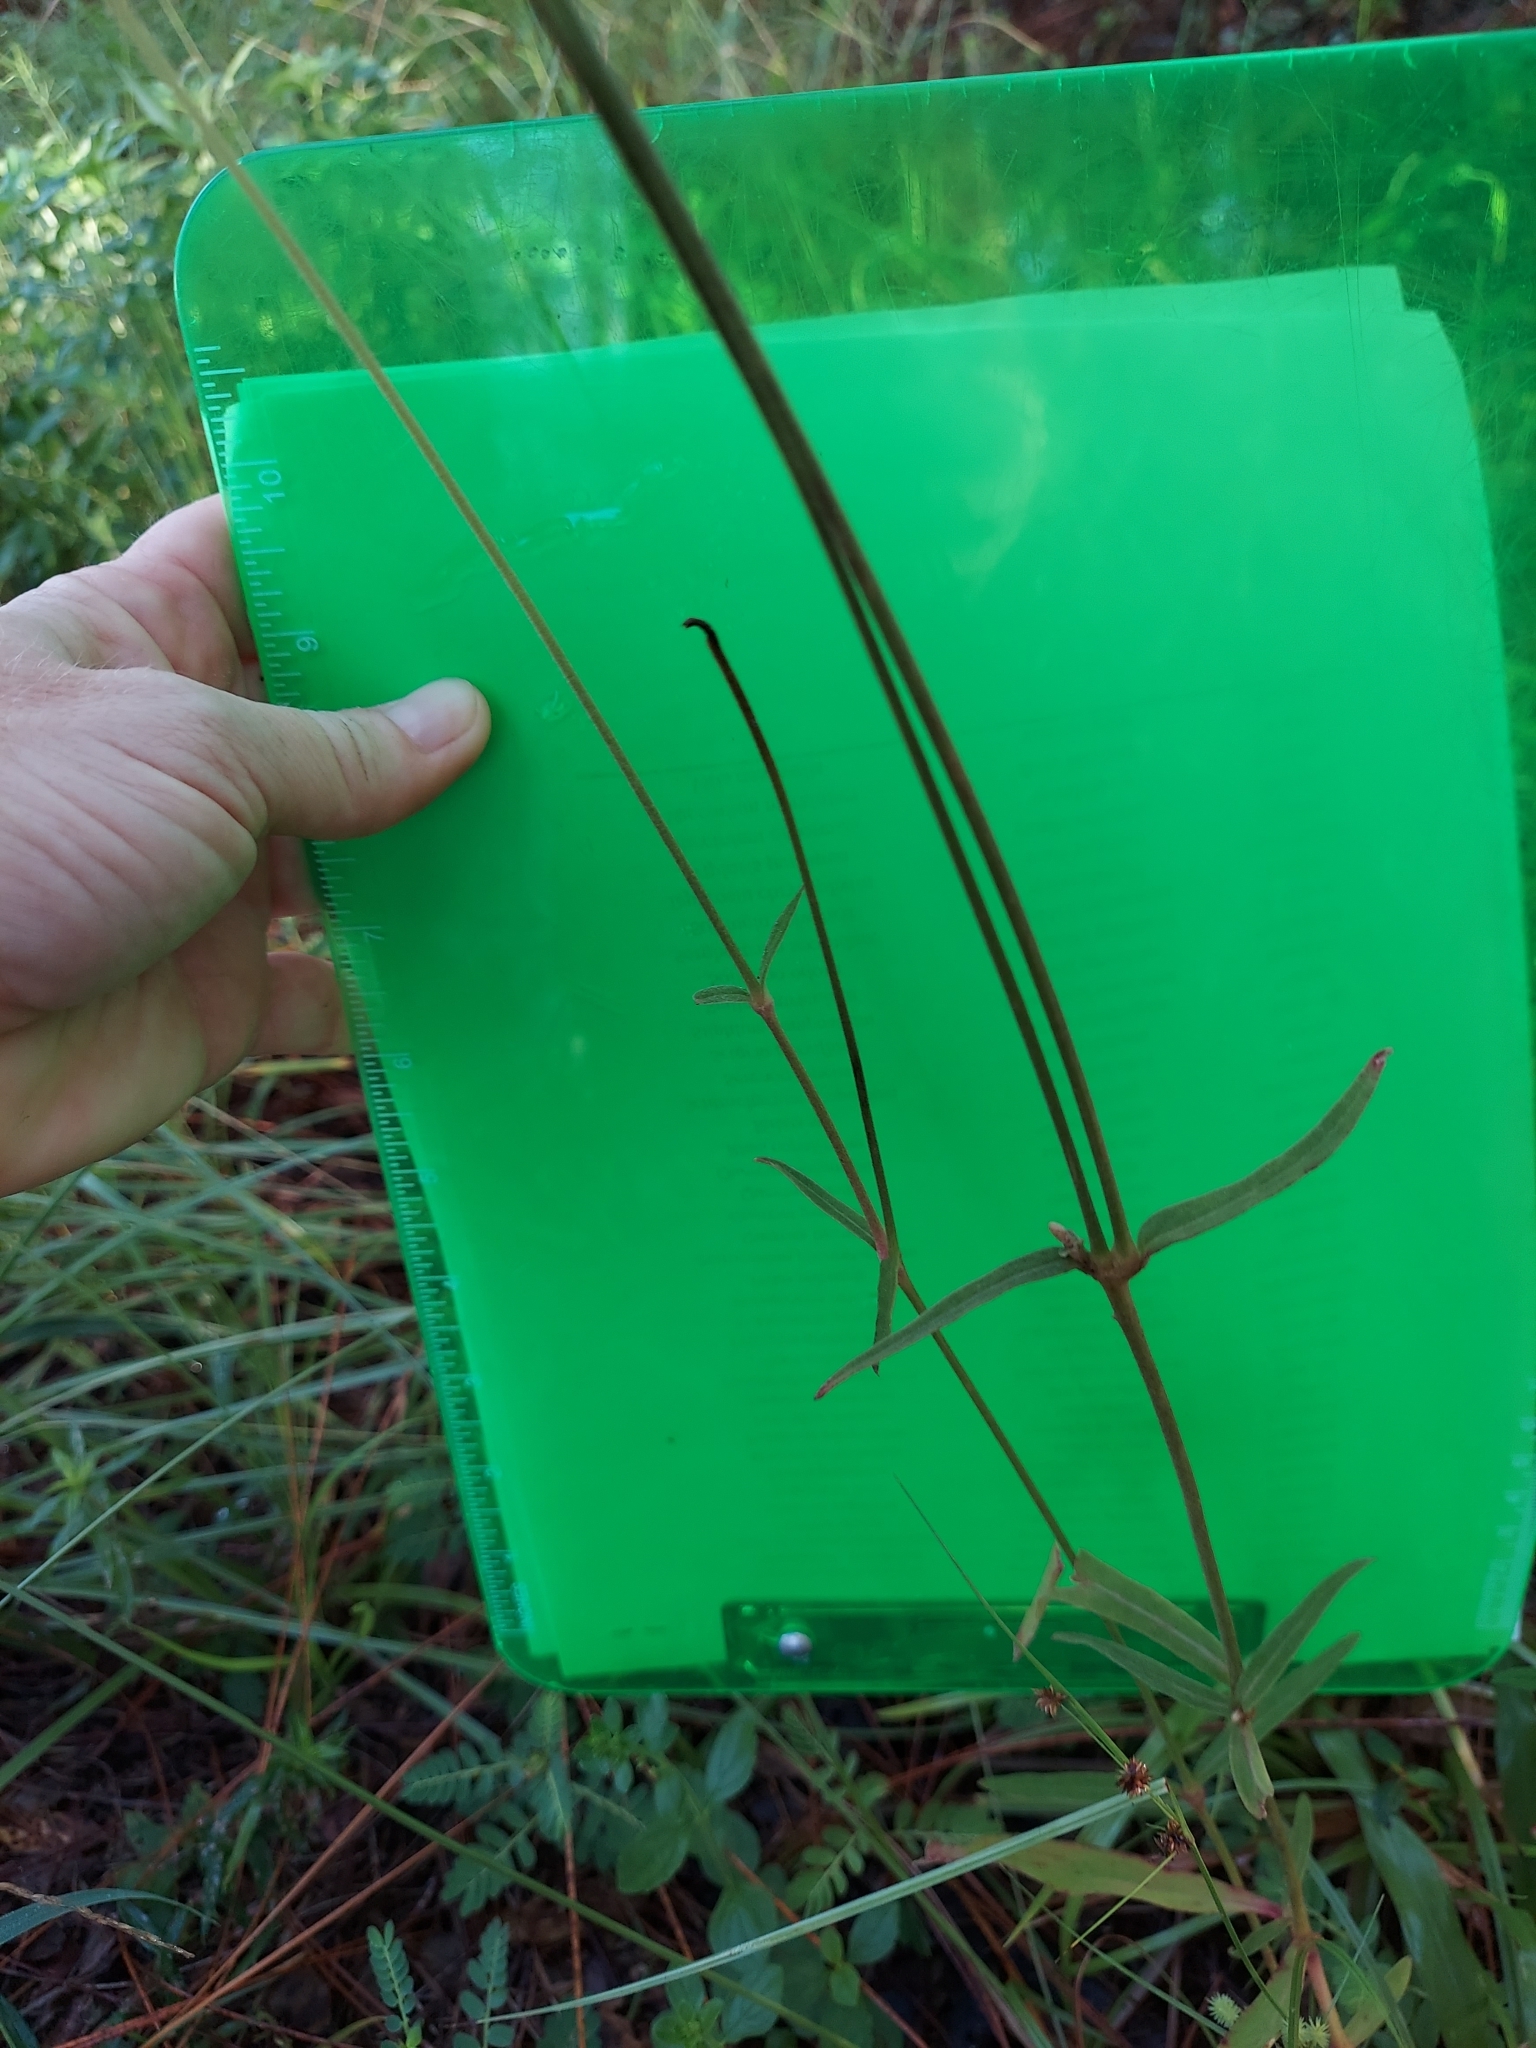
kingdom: Plantae
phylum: Tracheophyta
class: Magnoliopsida
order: Caryophyllales
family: Amaranthaceae
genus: Froelichia
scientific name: Froelichia floridana
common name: Florida snake-cotton
